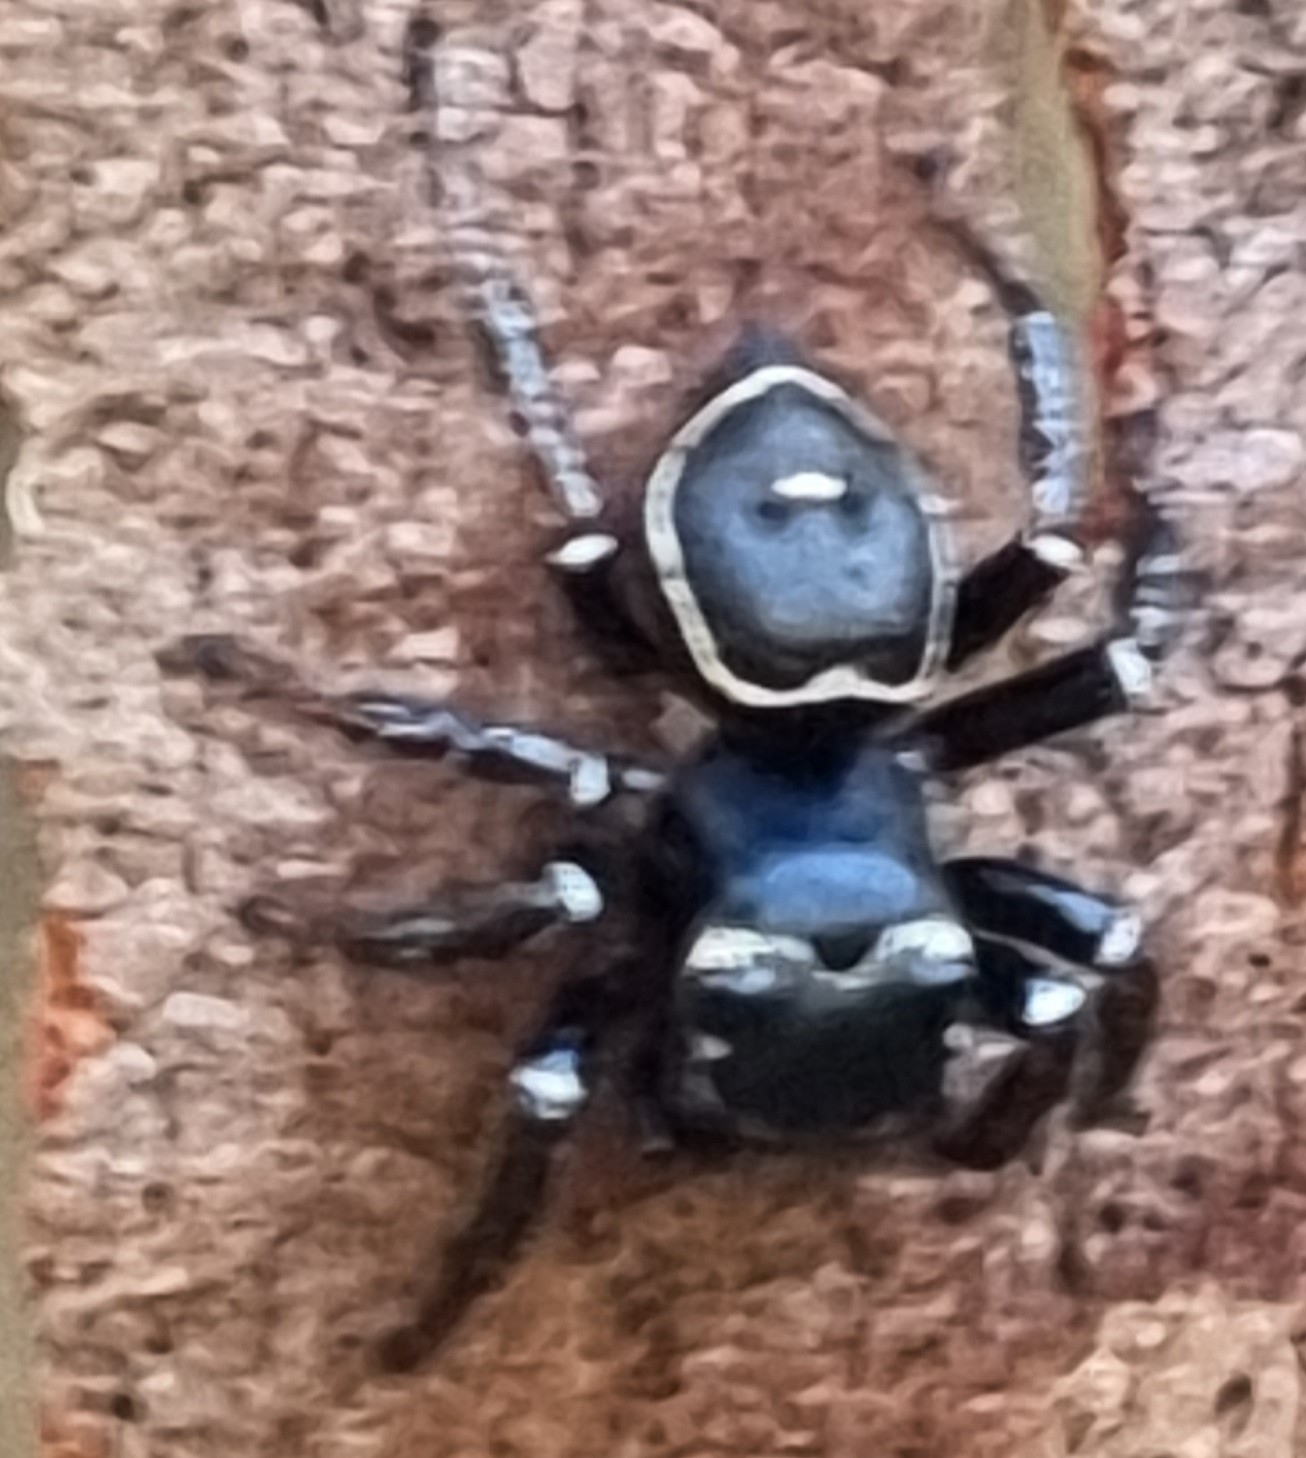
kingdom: Animalia
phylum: Arthropoda
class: Arachnida
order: Araneae
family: Salticidae
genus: Zenodorus
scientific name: Zenodorus orbiculatus
